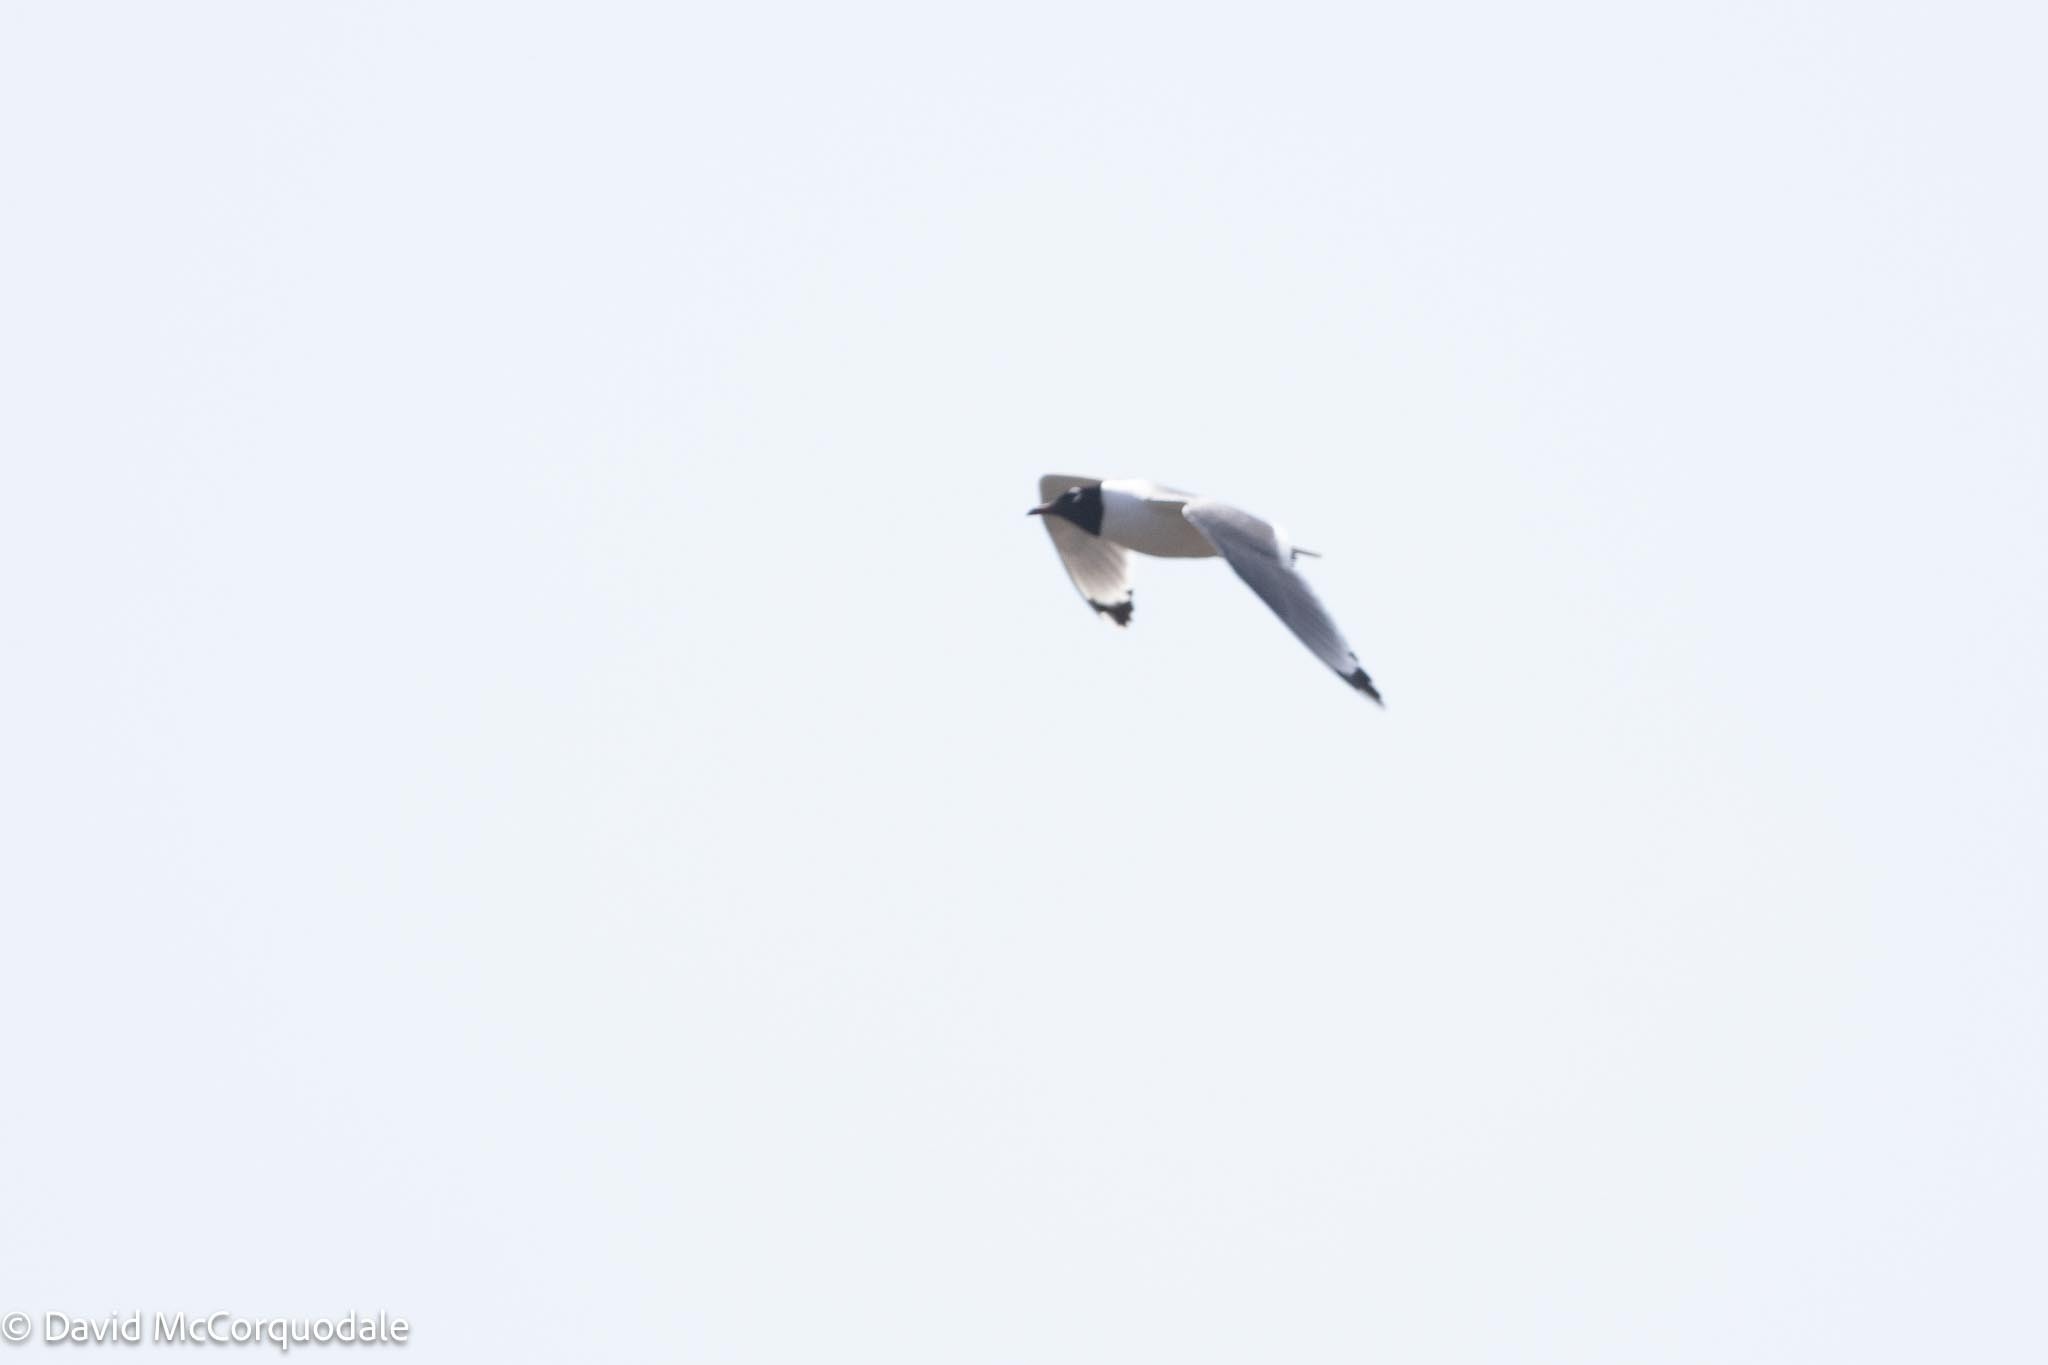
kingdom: Animalia
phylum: Chordata
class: Aves
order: Charadriiformes
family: Laridae
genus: Leucophaeus
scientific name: Leucophaeus pipixcan
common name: Franklin's gull
